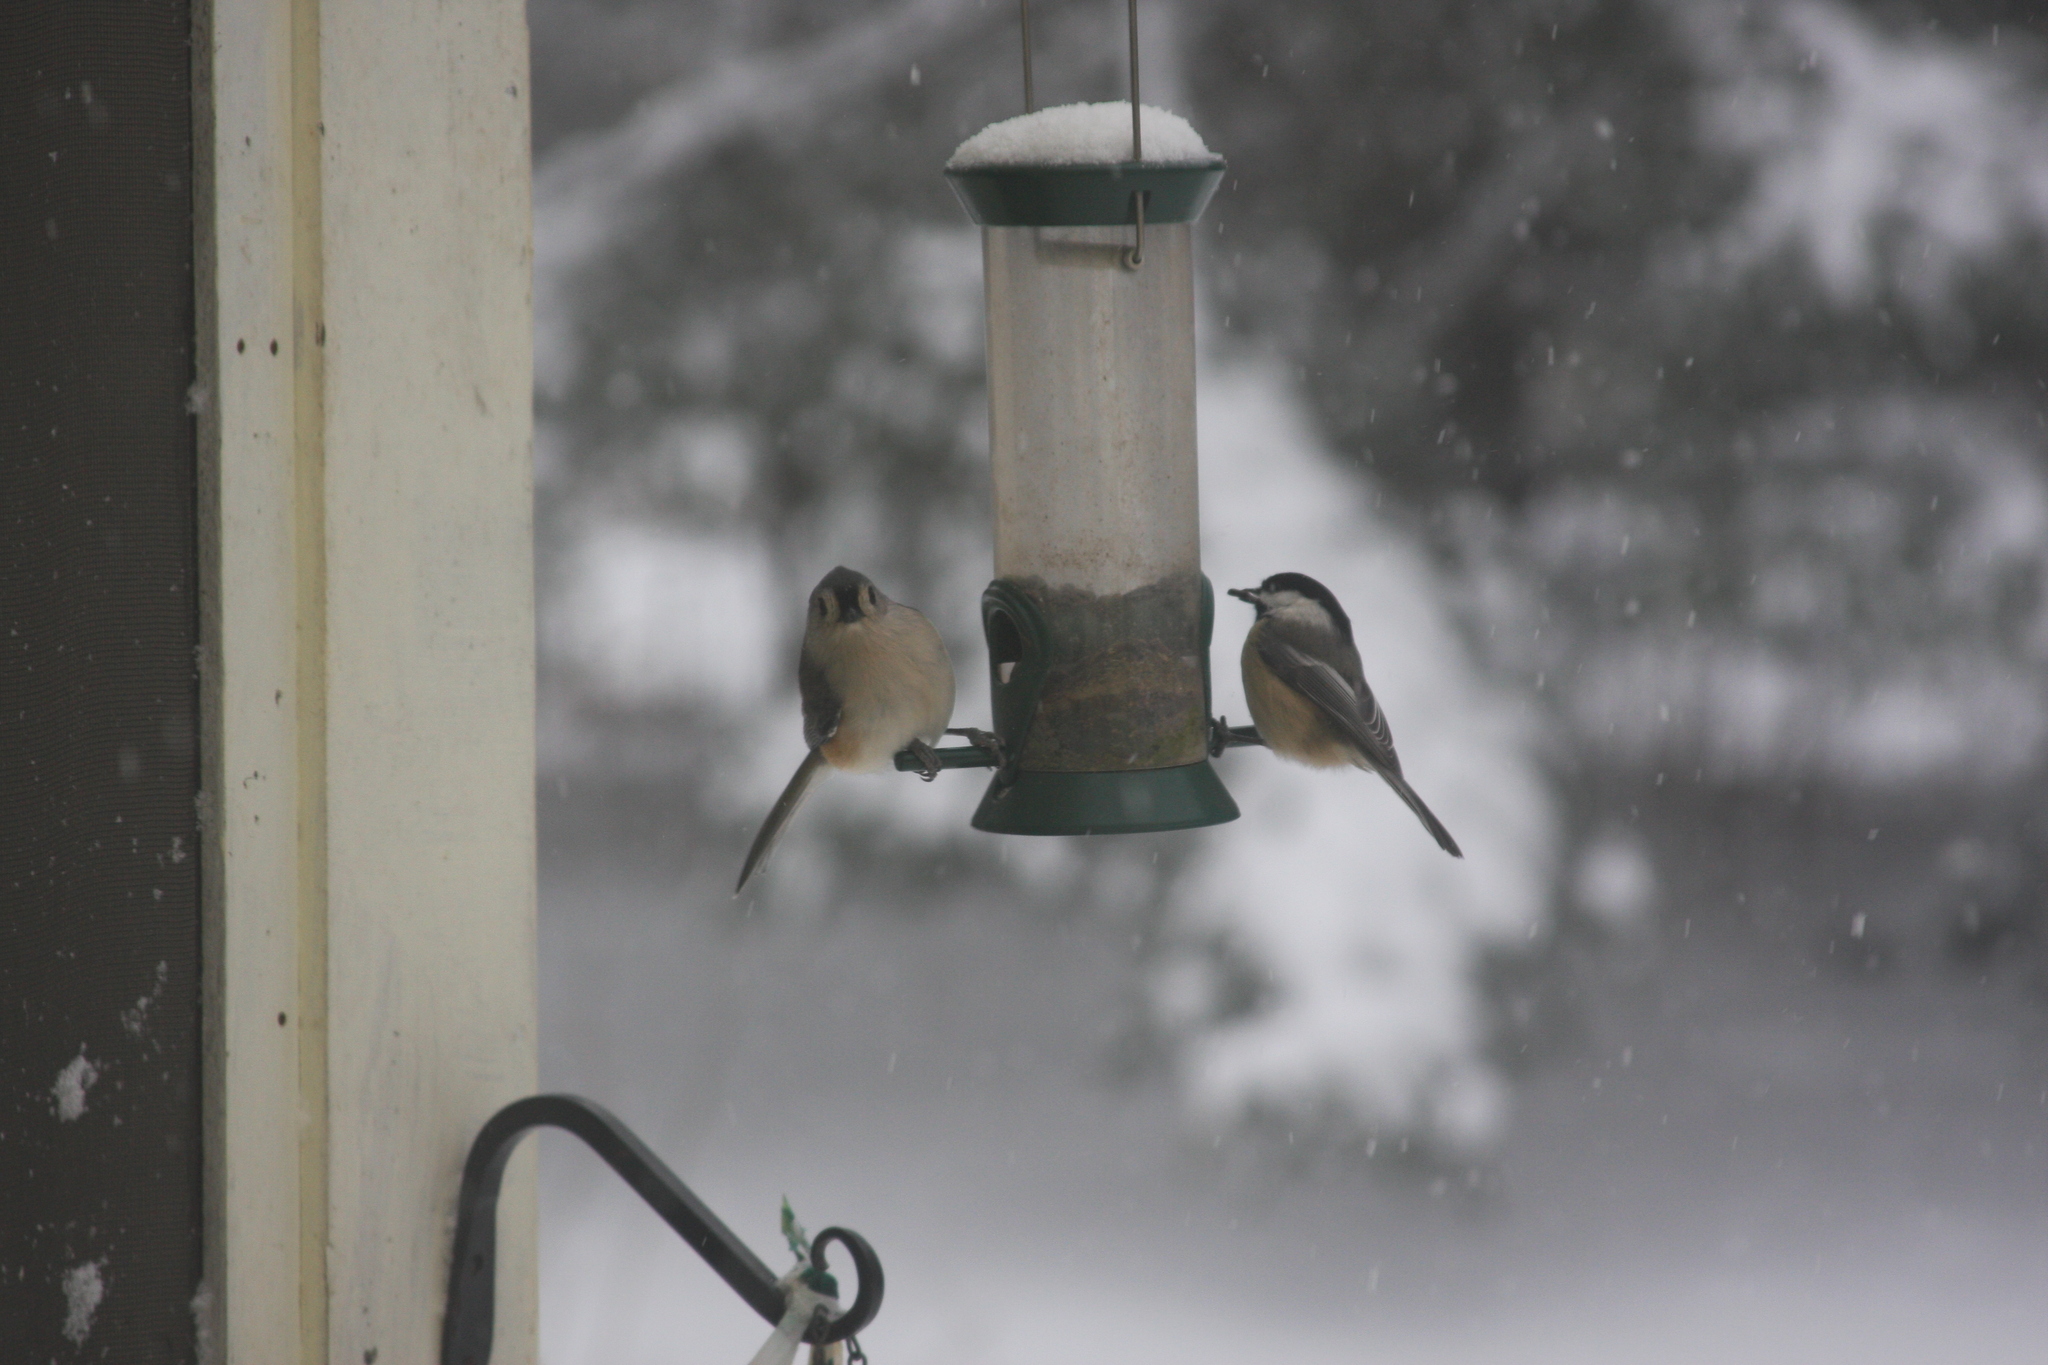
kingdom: Animalia
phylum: Chordata
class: Aves
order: Passeriformes
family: Paridae
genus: Poecile
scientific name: Poecile atricapillus
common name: Black-capped chickadee
